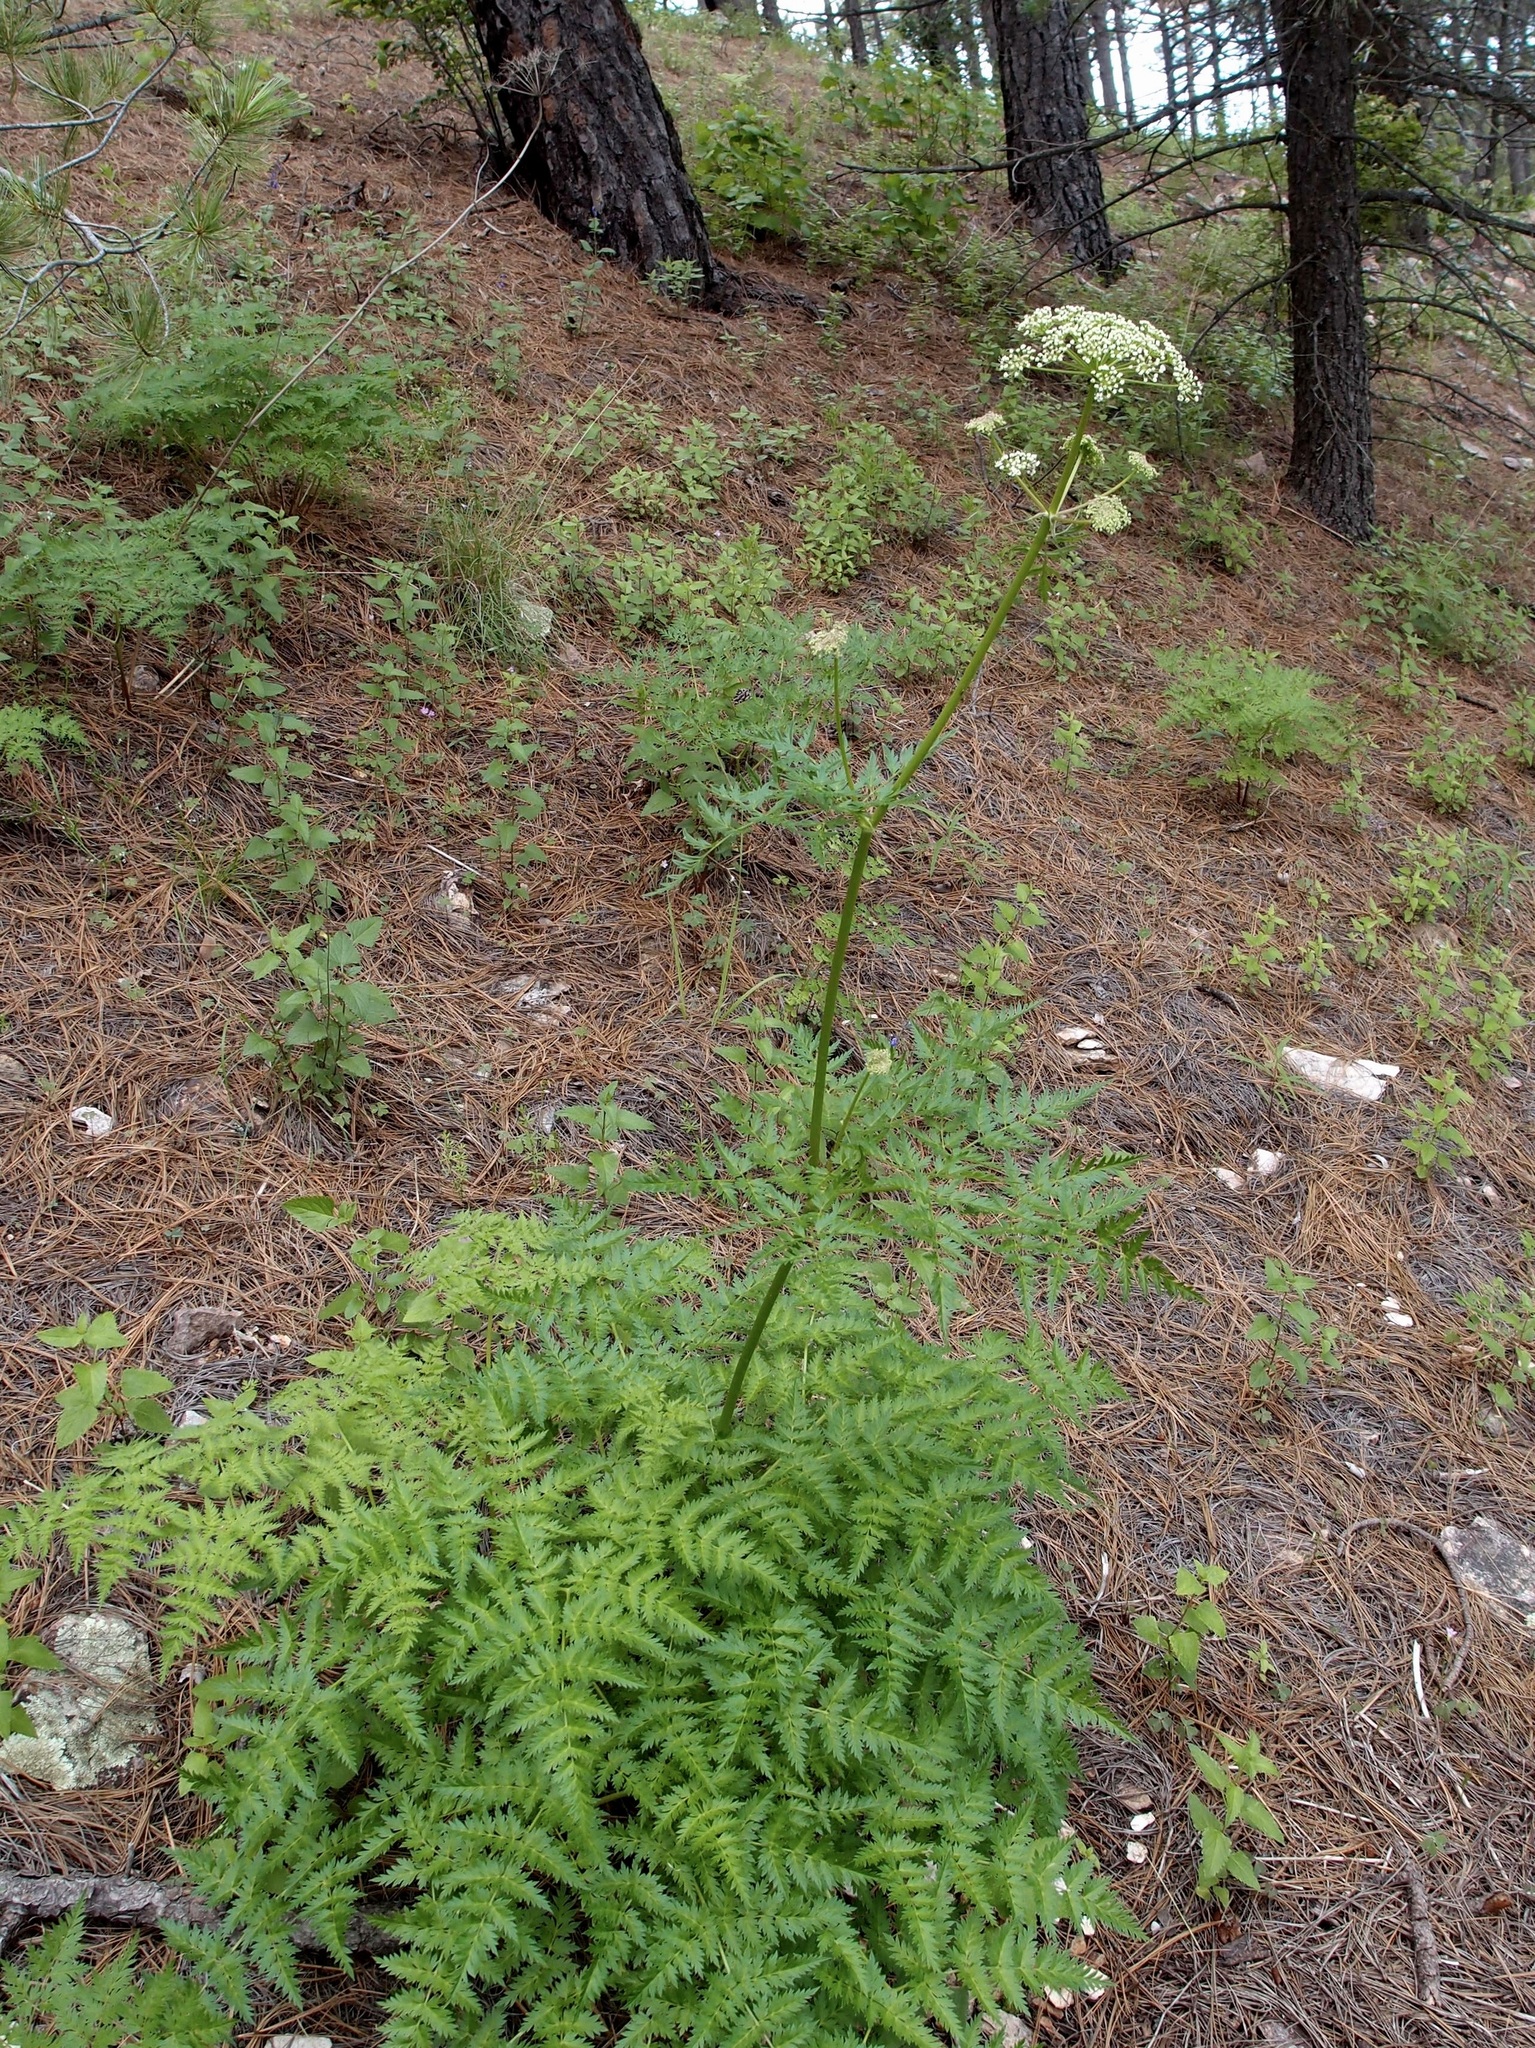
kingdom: Plantae
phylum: Tracheophyta
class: Magnoliopsida
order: Apiales
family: Apiaceae
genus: Ligusticum
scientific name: Ligusticum porteri
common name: Mountain lovage
